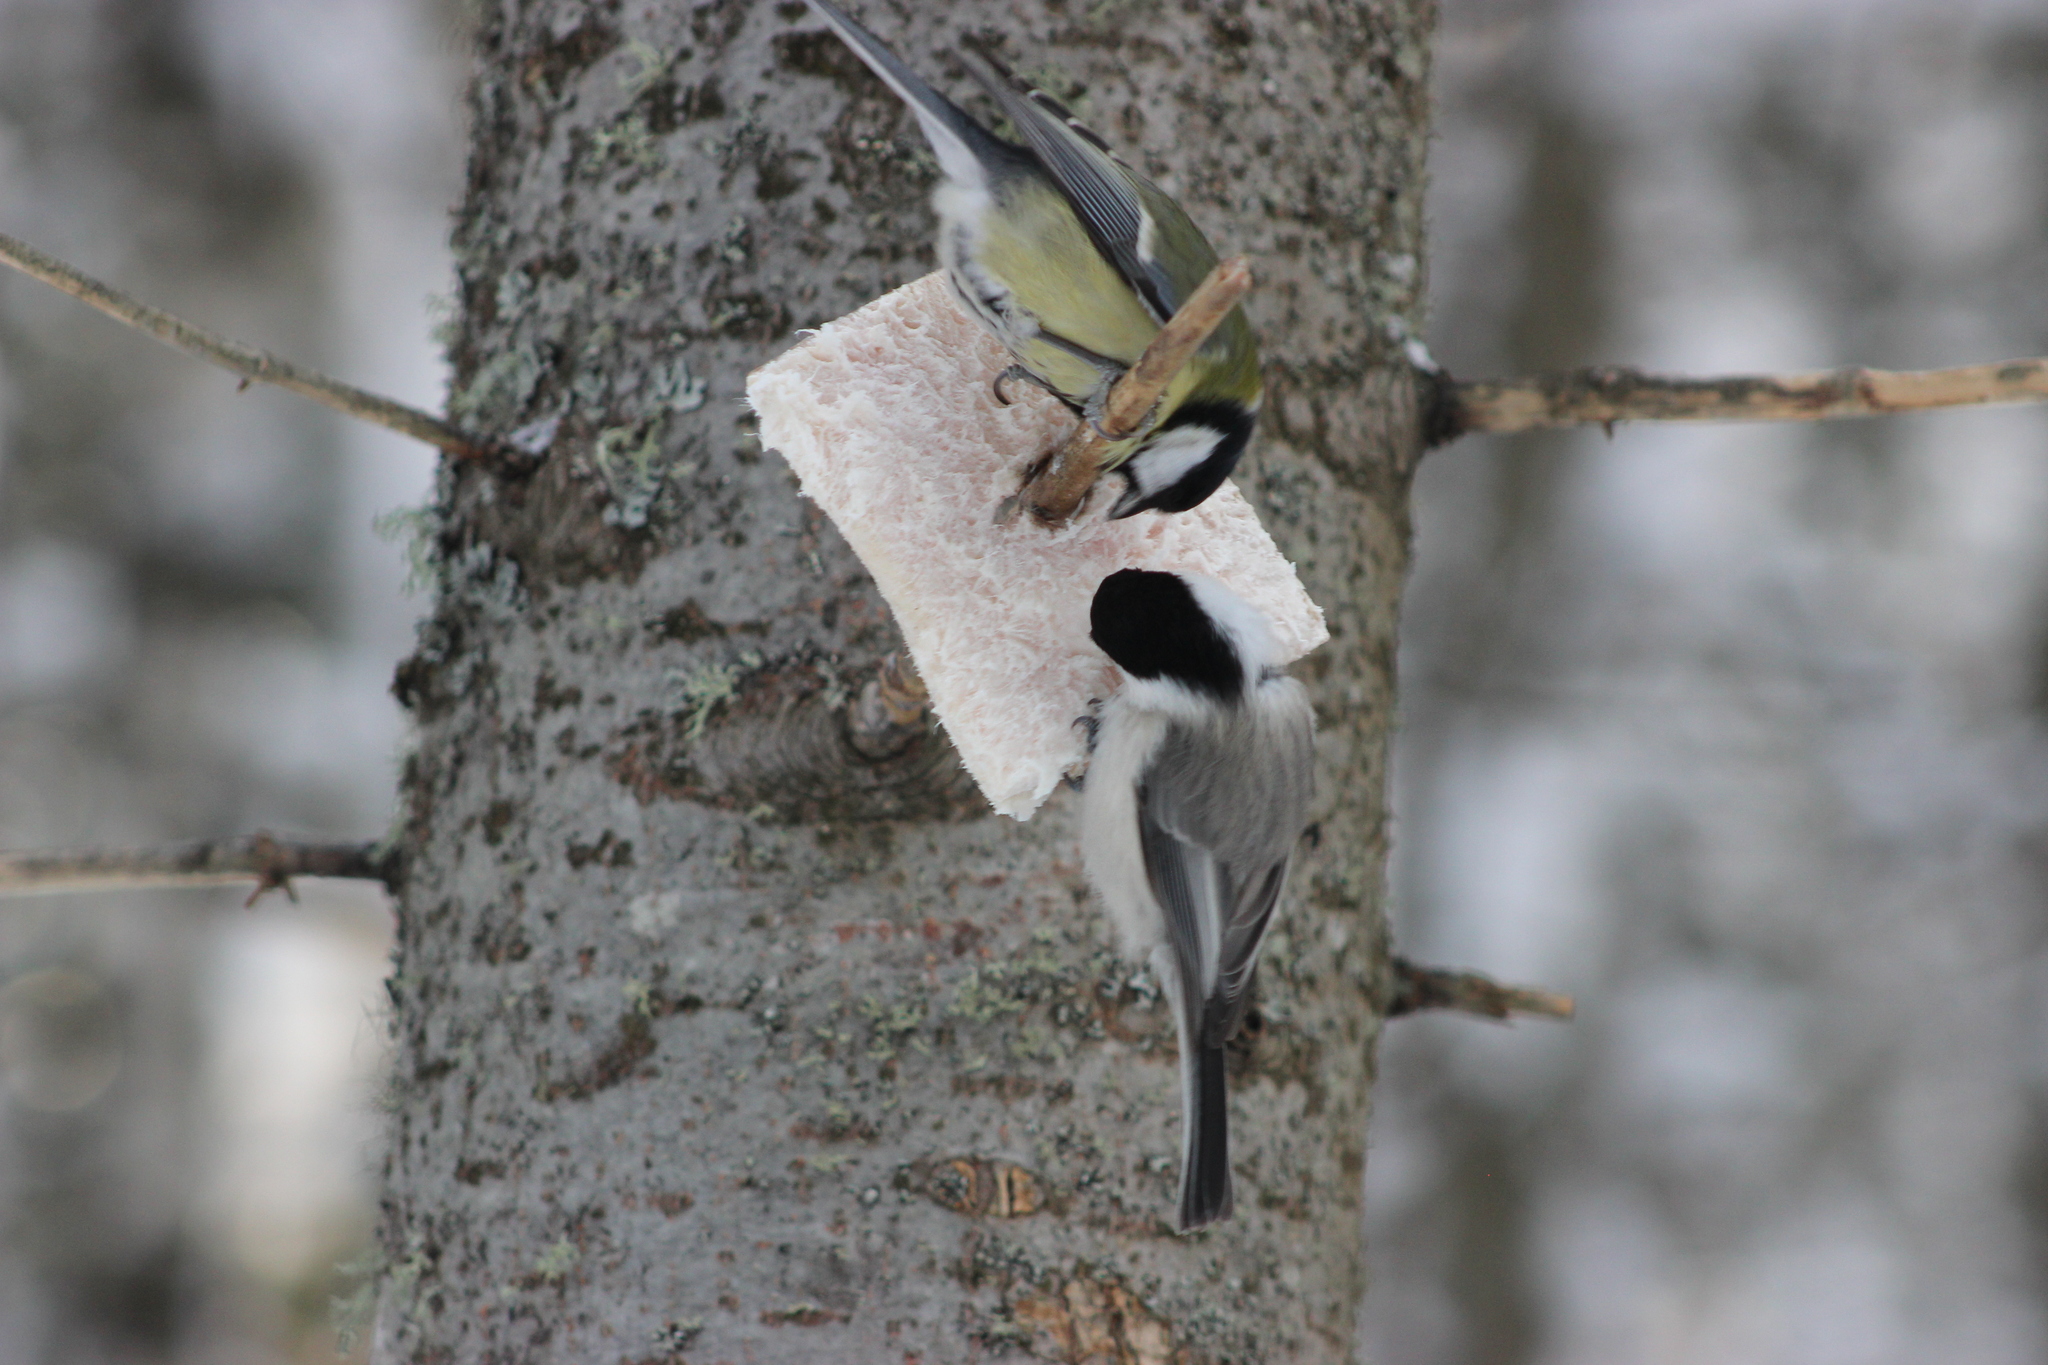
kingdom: Animalia
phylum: Chordata
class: Aves
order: Passeriformes
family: Paridae
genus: Poecile
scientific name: Poecile montanus
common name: Willow tit
